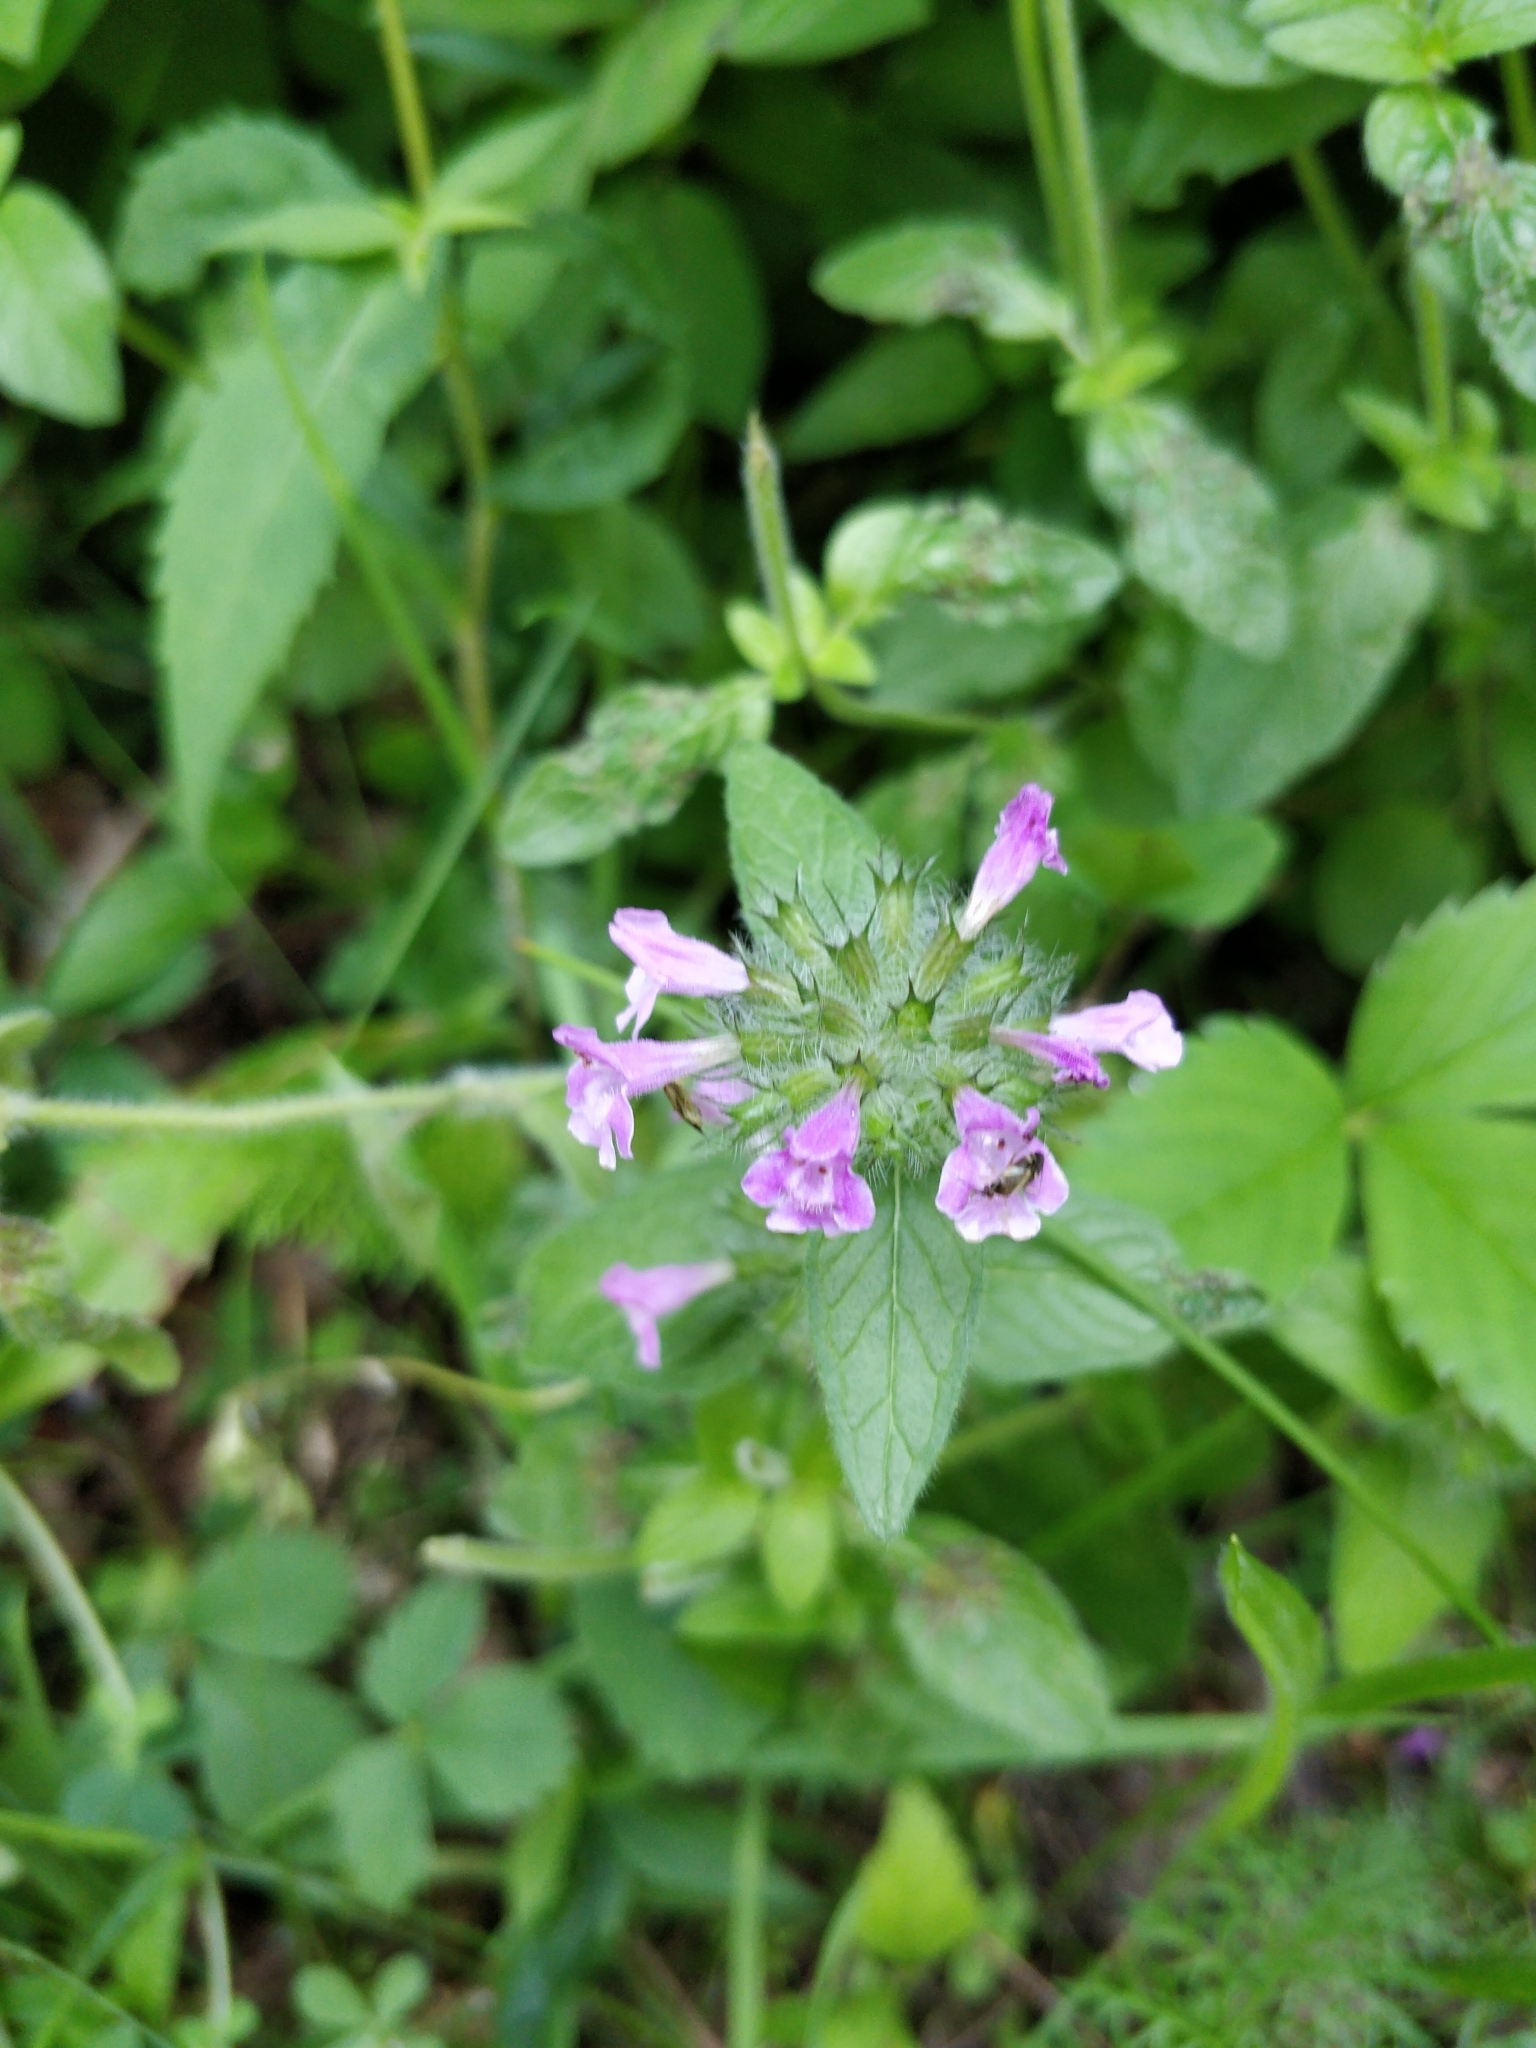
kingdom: Plantae
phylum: Tracheophyta
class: Magnoliopsida
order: Lamiales
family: Lamiaceae
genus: Clinopodium
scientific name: Clinopodium vulgare
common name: Wild basil
